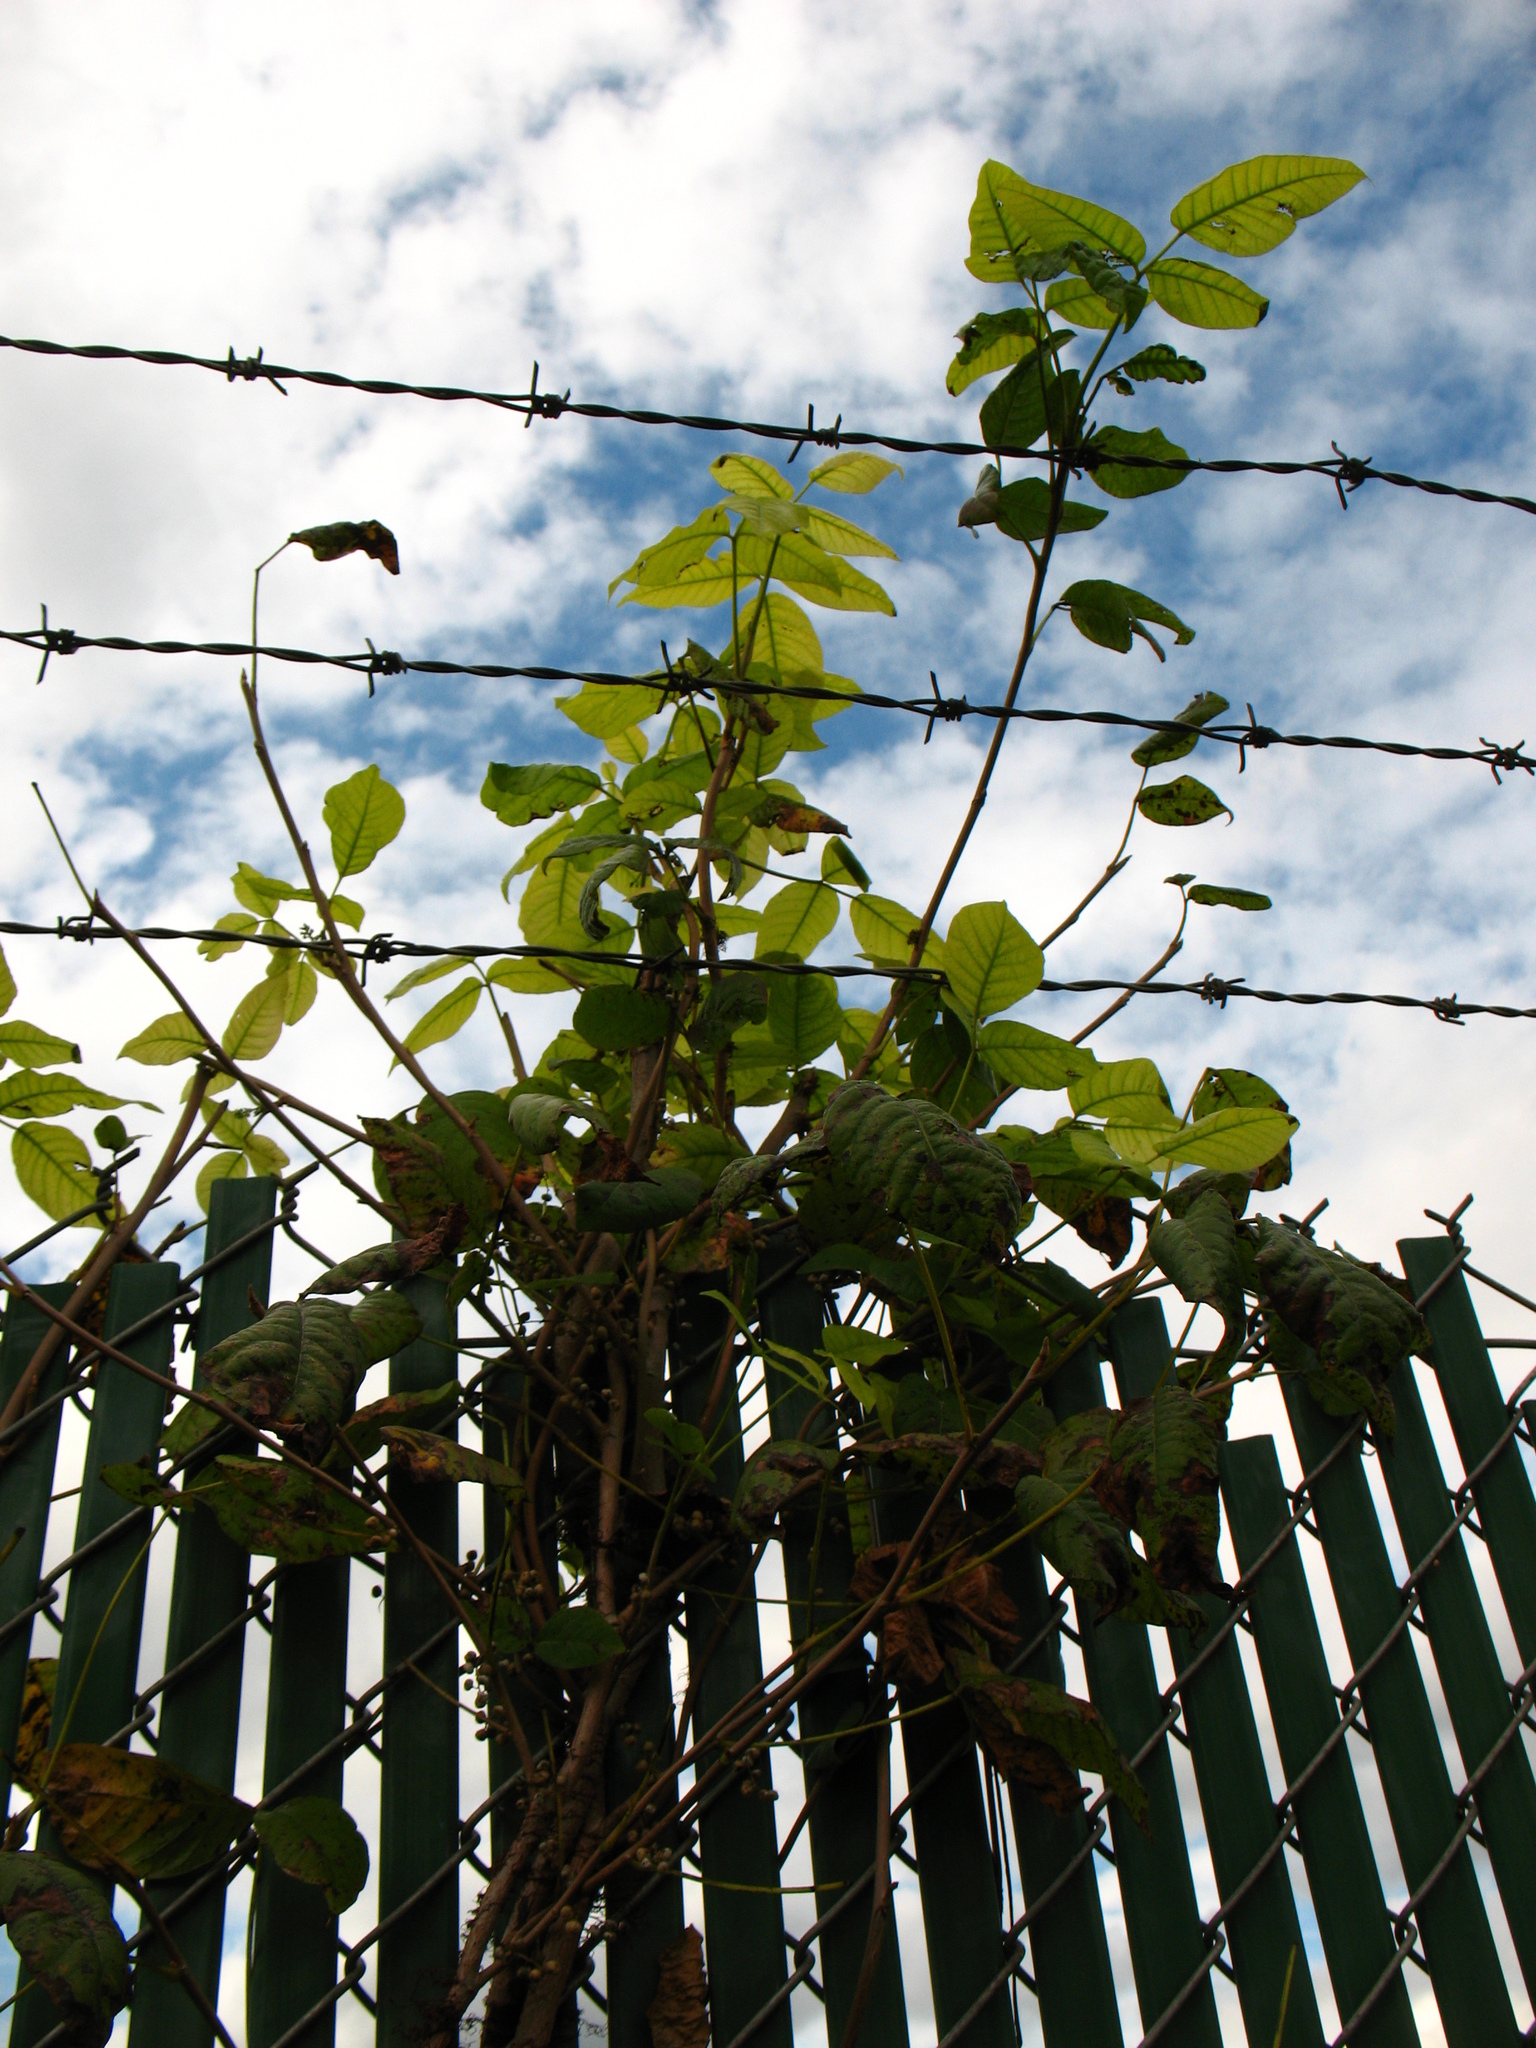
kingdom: Plantae
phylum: Tracheophyta
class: Magnoliopsida
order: Sapindales
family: Anacardiaceae
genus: Toxicodendron
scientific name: Toxicodendron radicans
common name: Poison ivy
